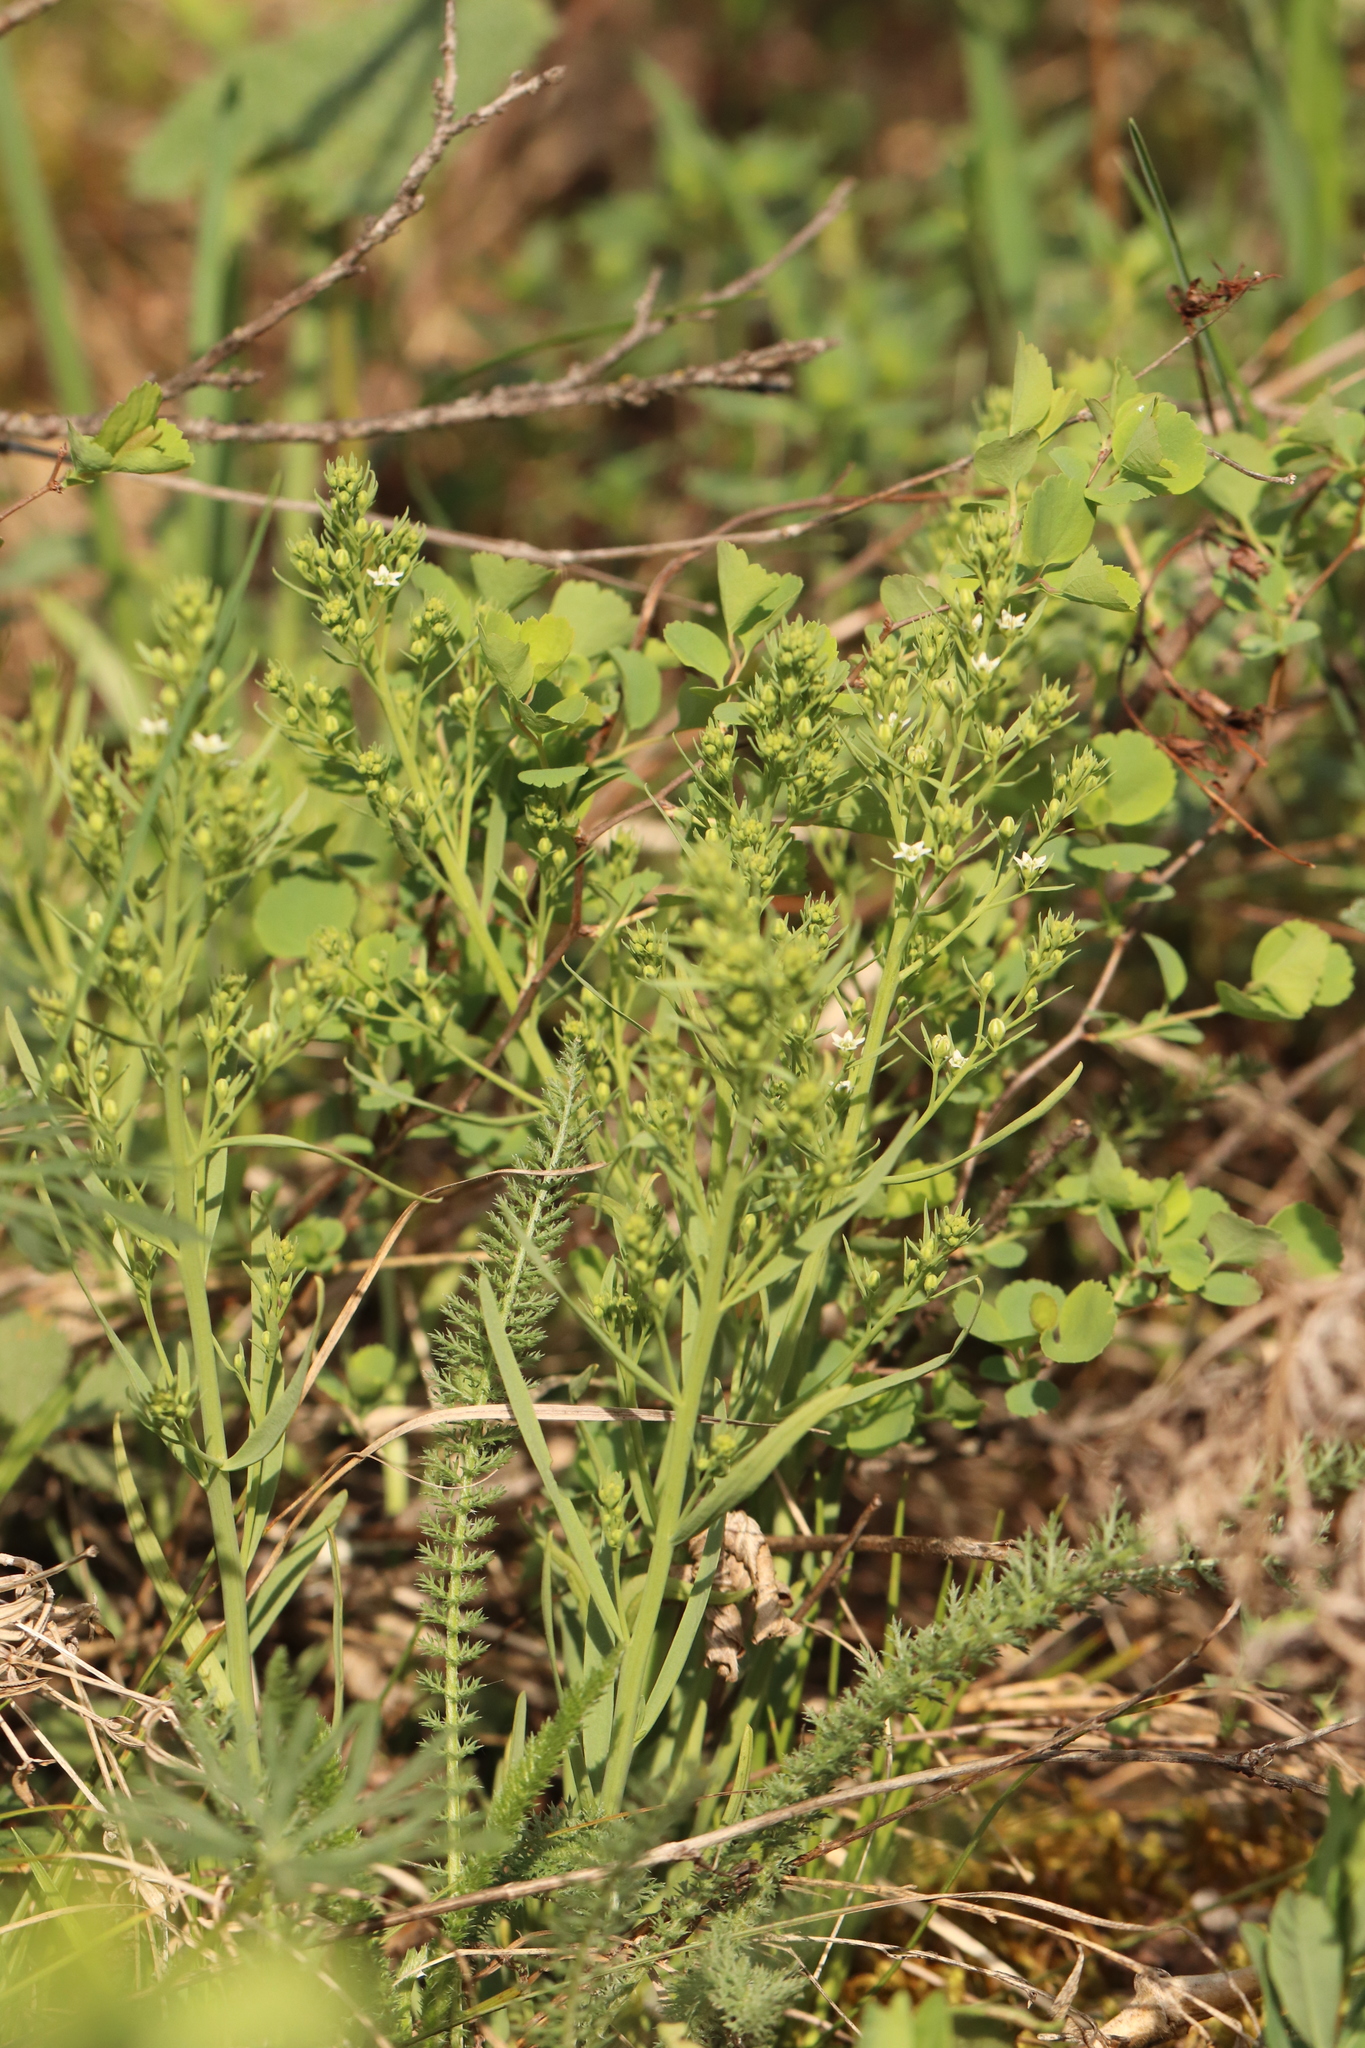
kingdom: Plantae
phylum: Tracheophyta
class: Magnoliopsida
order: Santalales
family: Thesiaceae
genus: Thesium
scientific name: Thesium refractum
